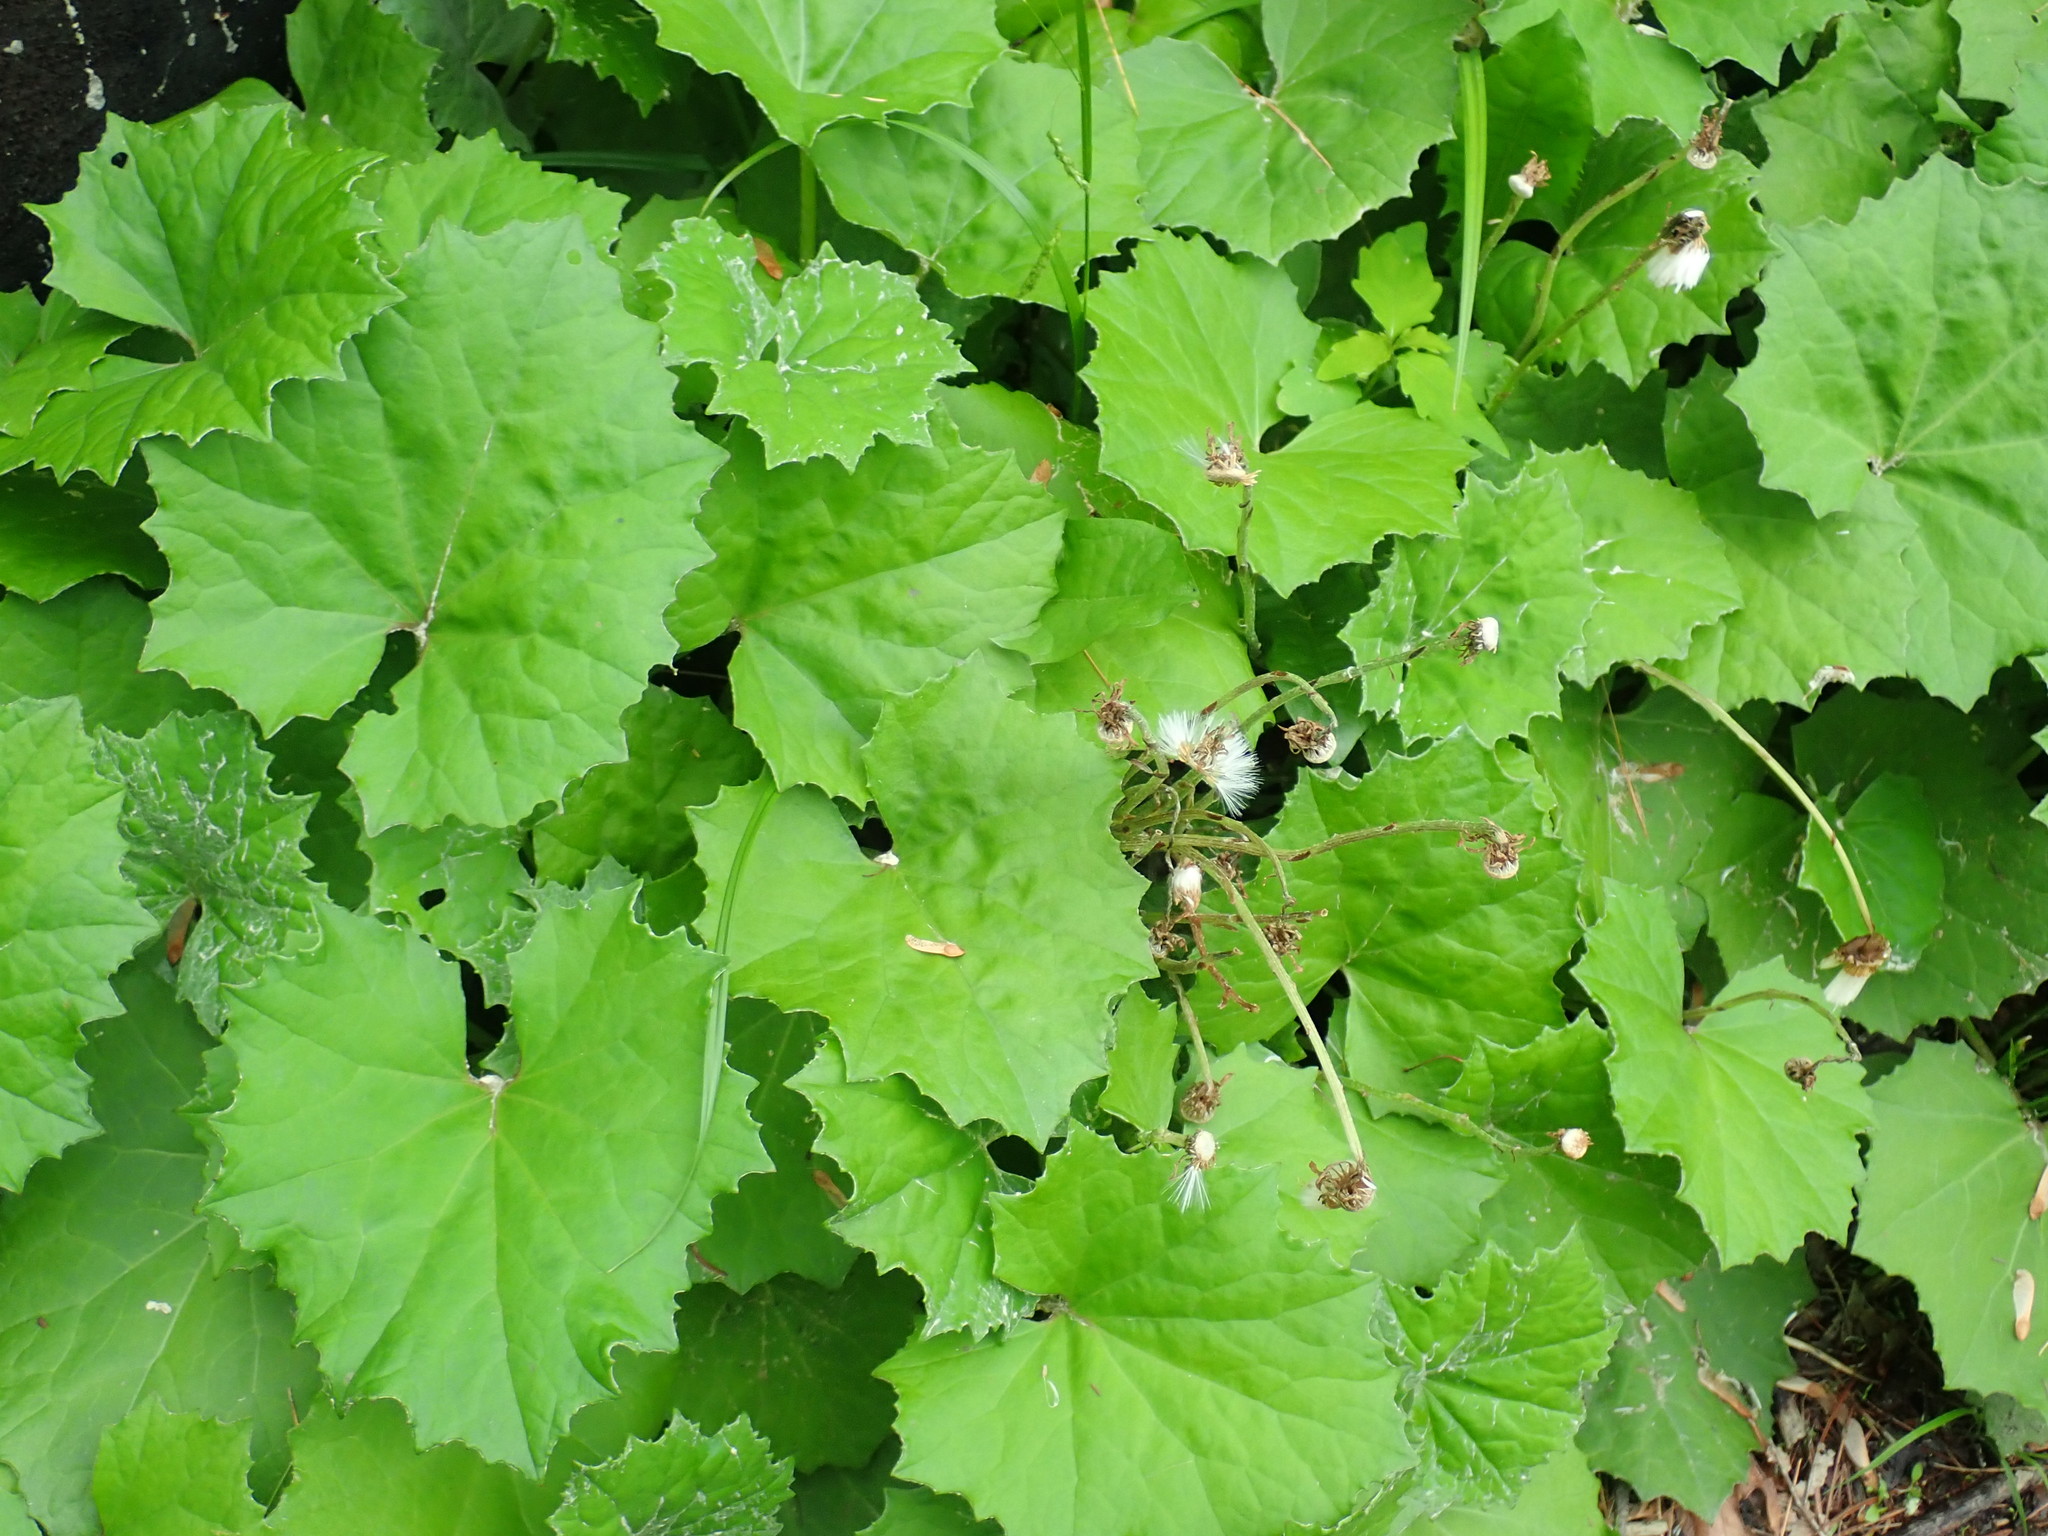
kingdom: Plantae
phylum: Tracheophyta
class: Magnoliopsida
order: Asterales
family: Asteraceae
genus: Tussilago
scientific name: Tussilago farfara
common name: Coltsfoot
